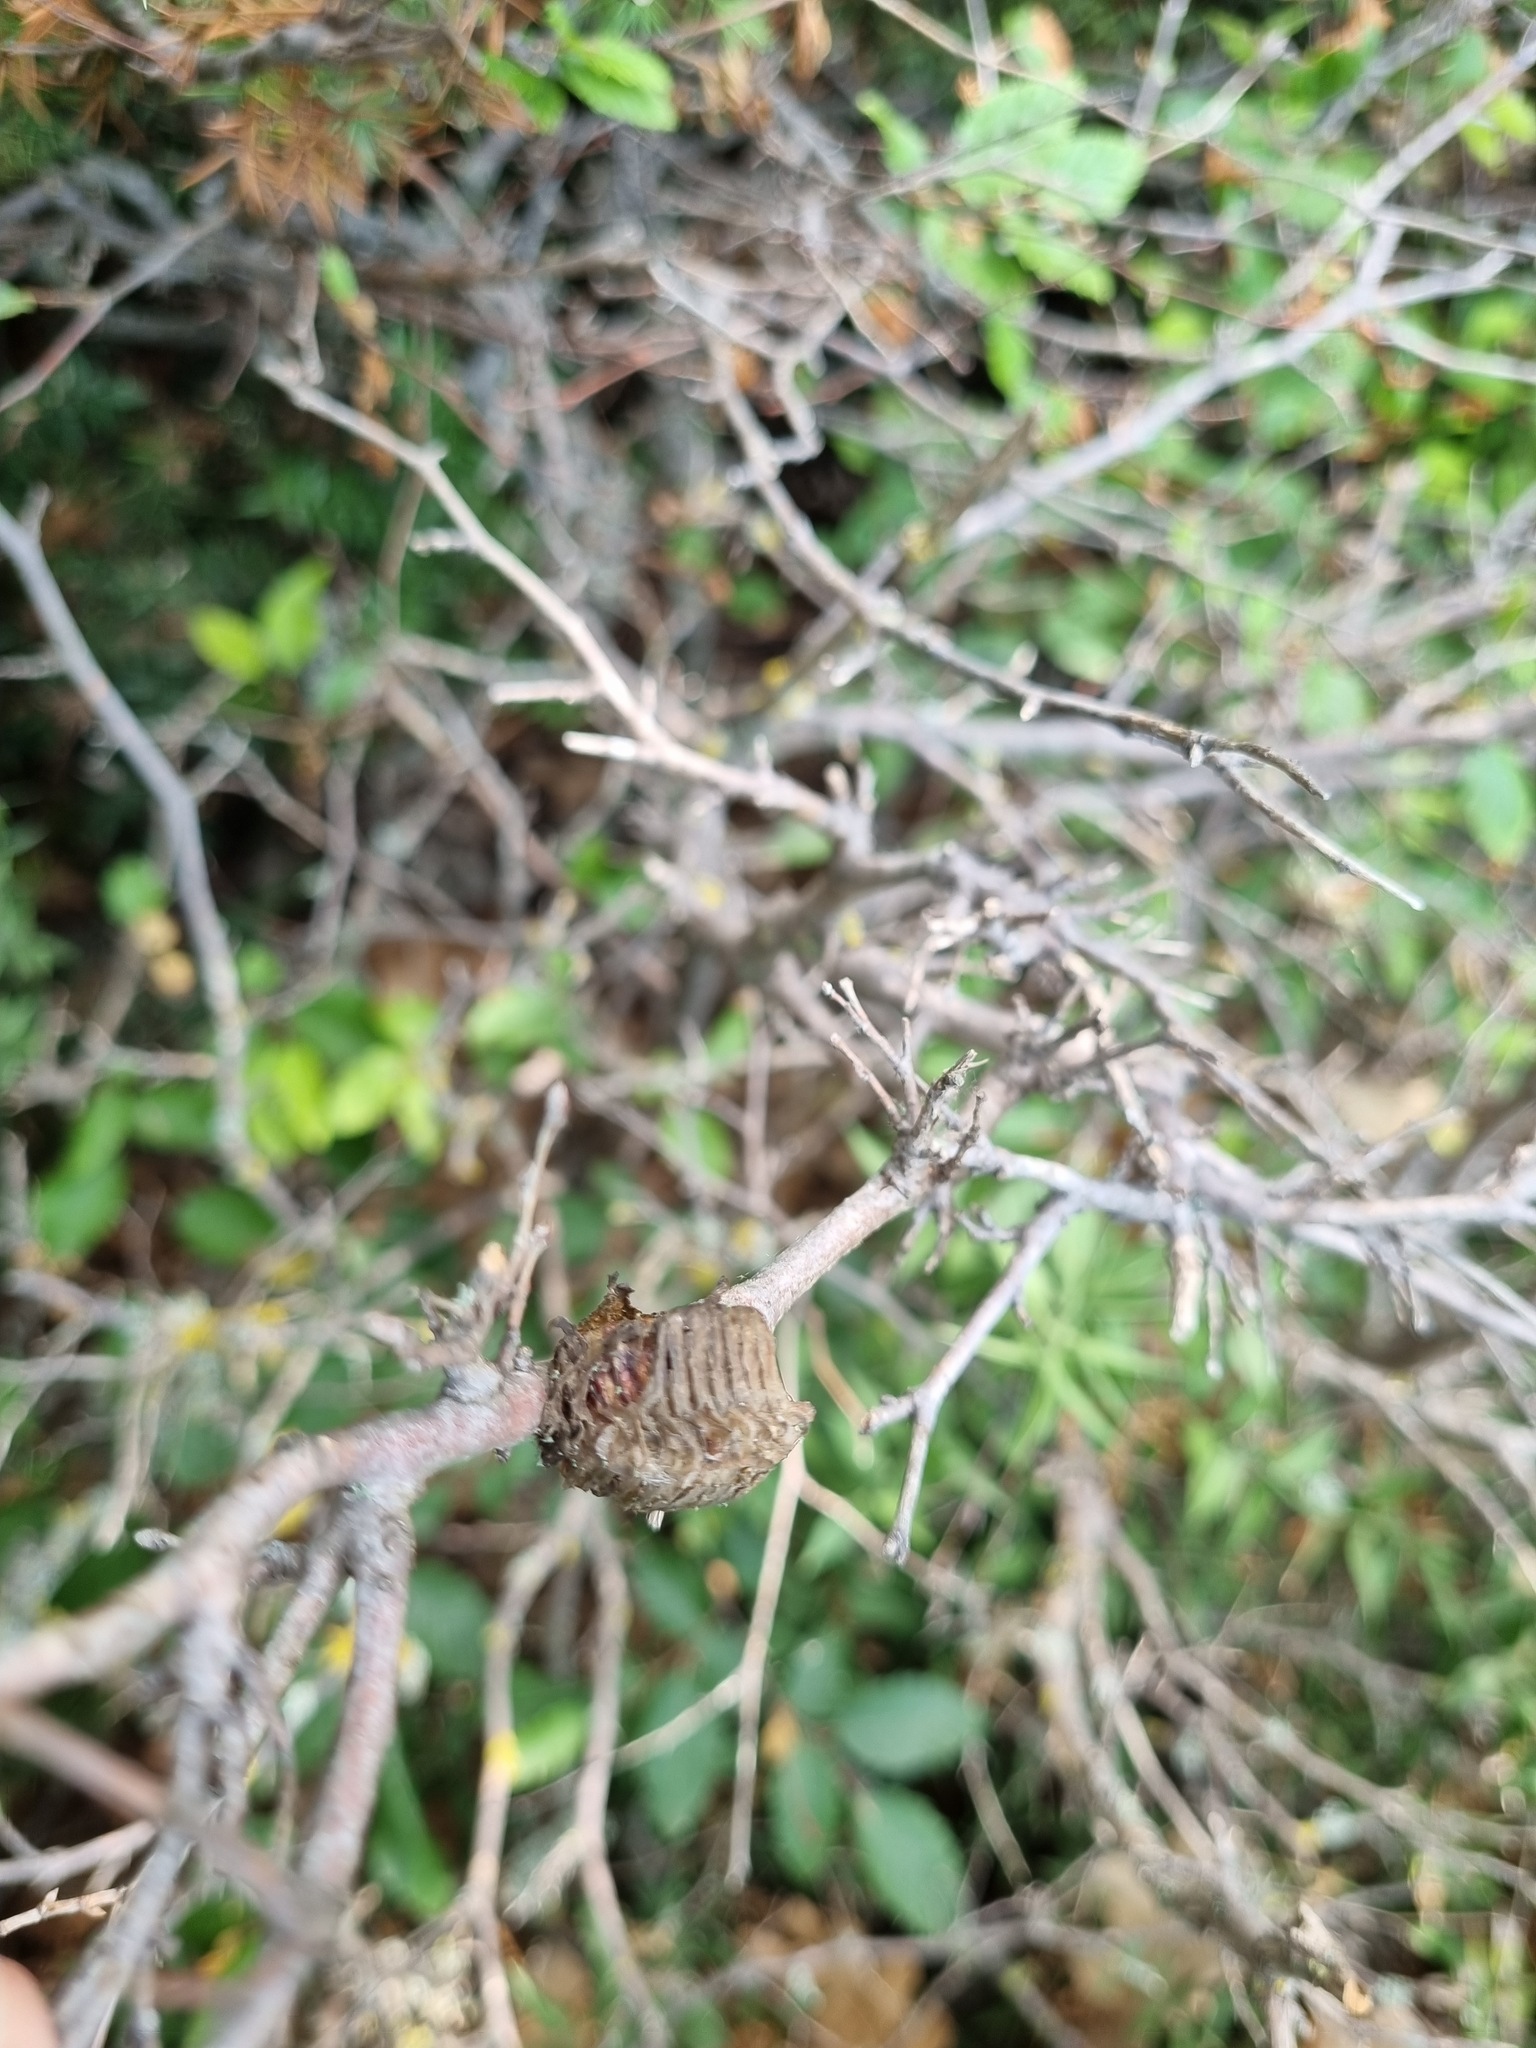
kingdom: Animalia
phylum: Arthropoda
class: Insecta
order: Mantodea
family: Mantidae
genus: Hierodula
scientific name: Hierodula transcaucasica
